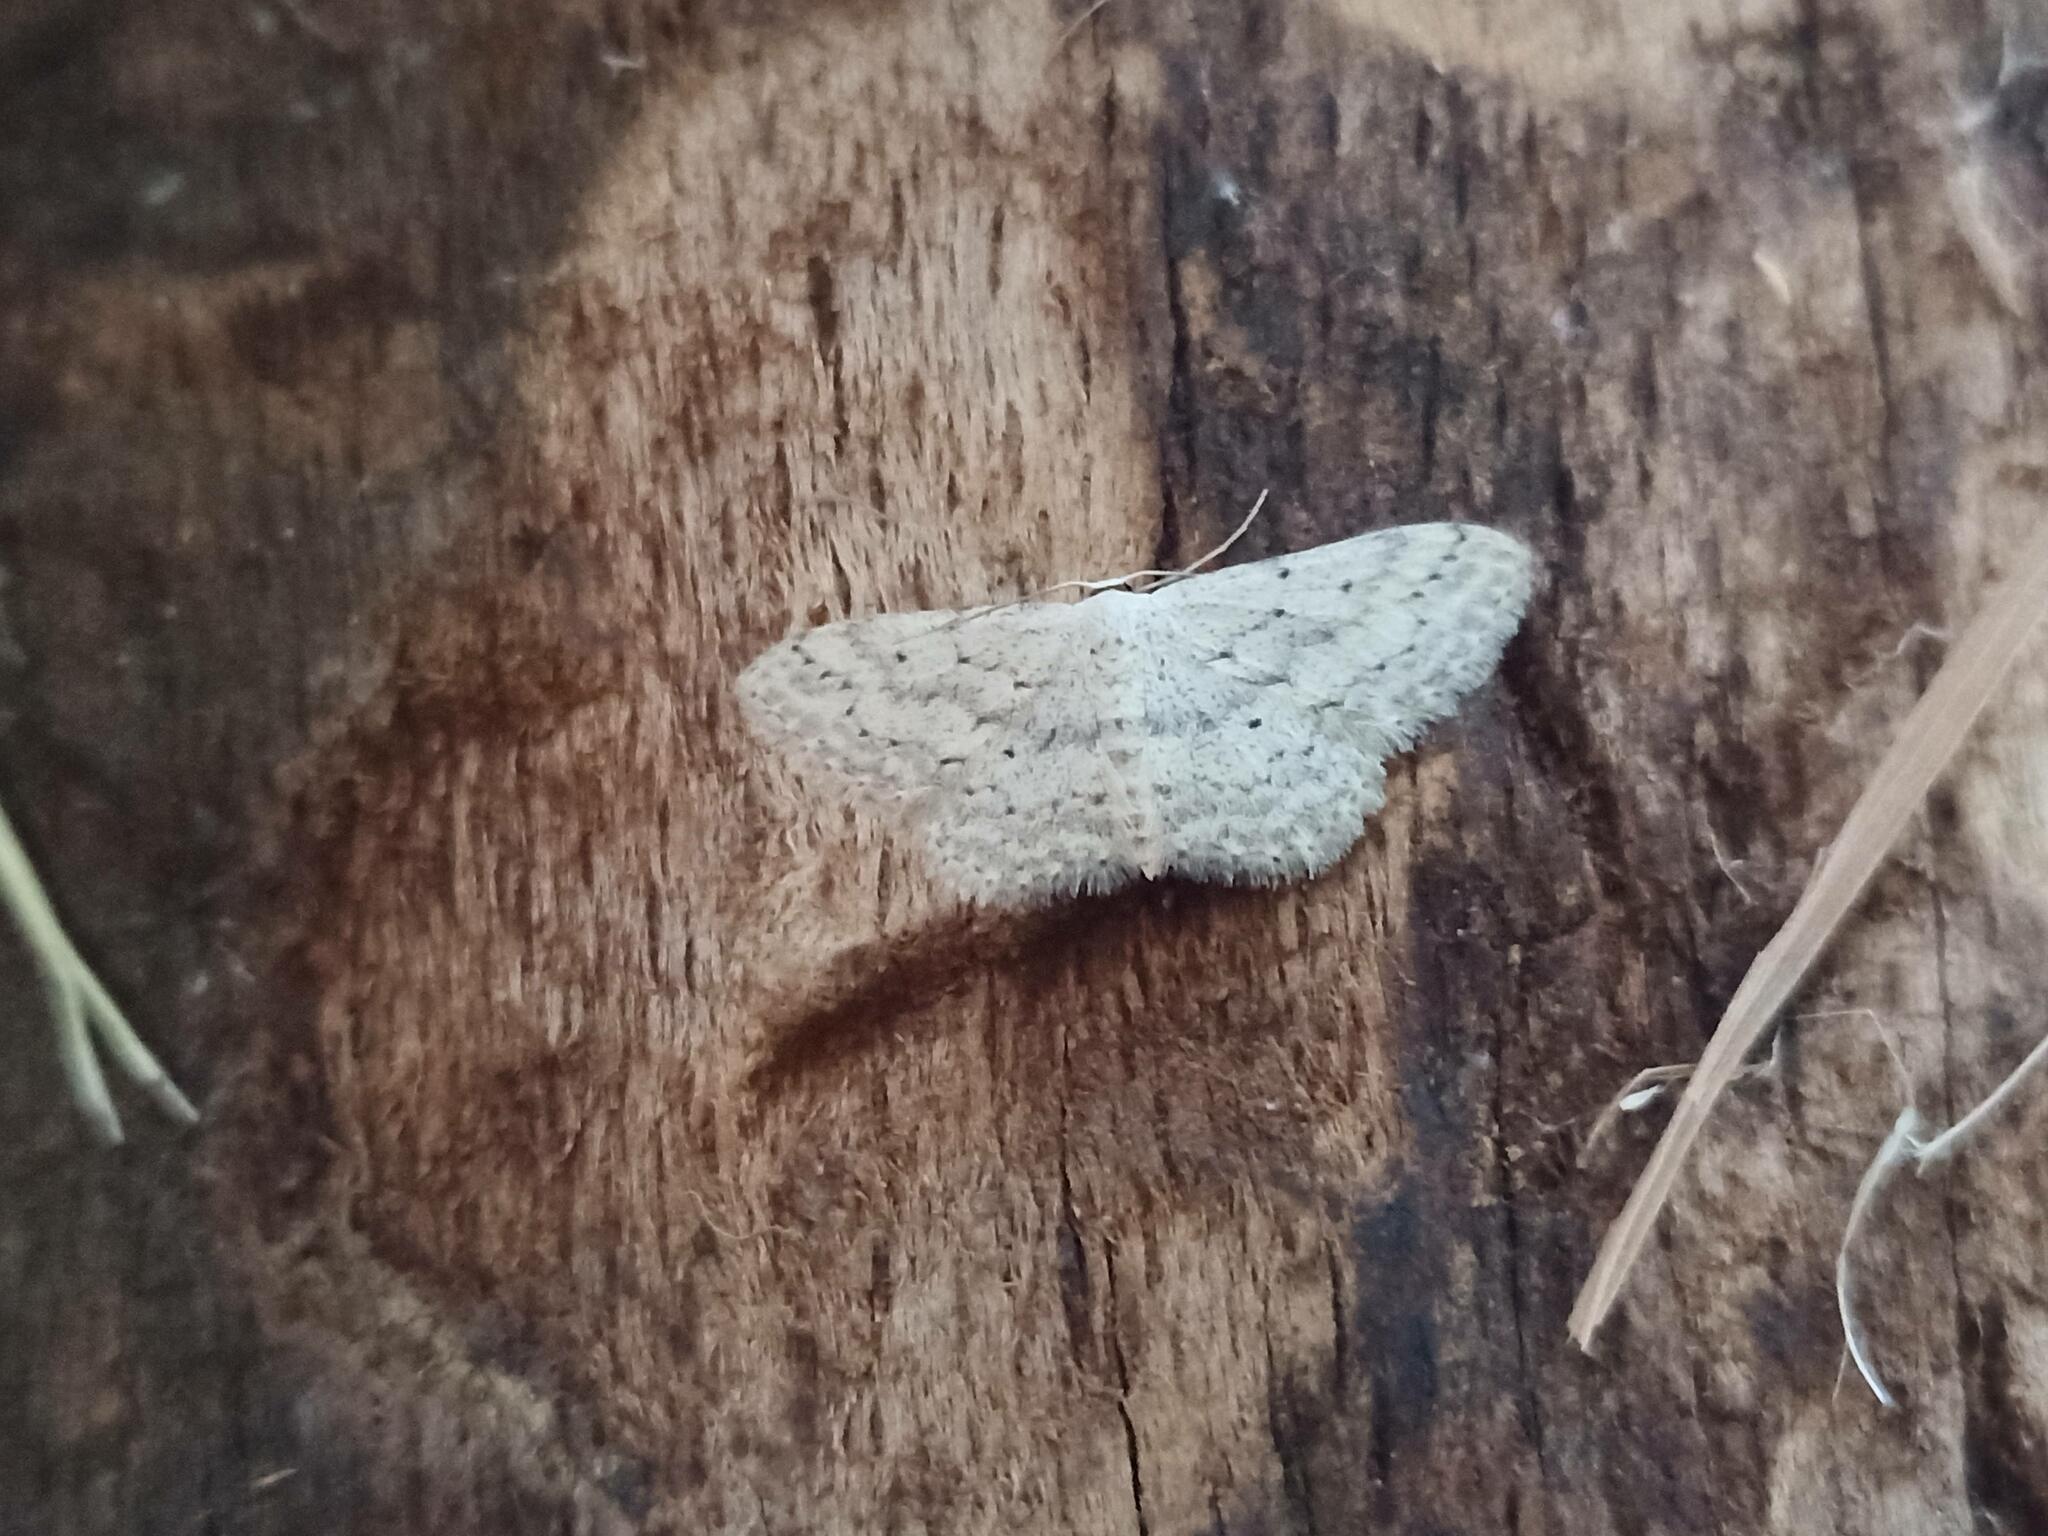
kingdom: Animalia
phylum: Arthropoda
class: Insecta
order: Lepidoptera
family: Geometridae
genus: Idaea
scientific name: Idaea seriata
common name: Small dusty wave
